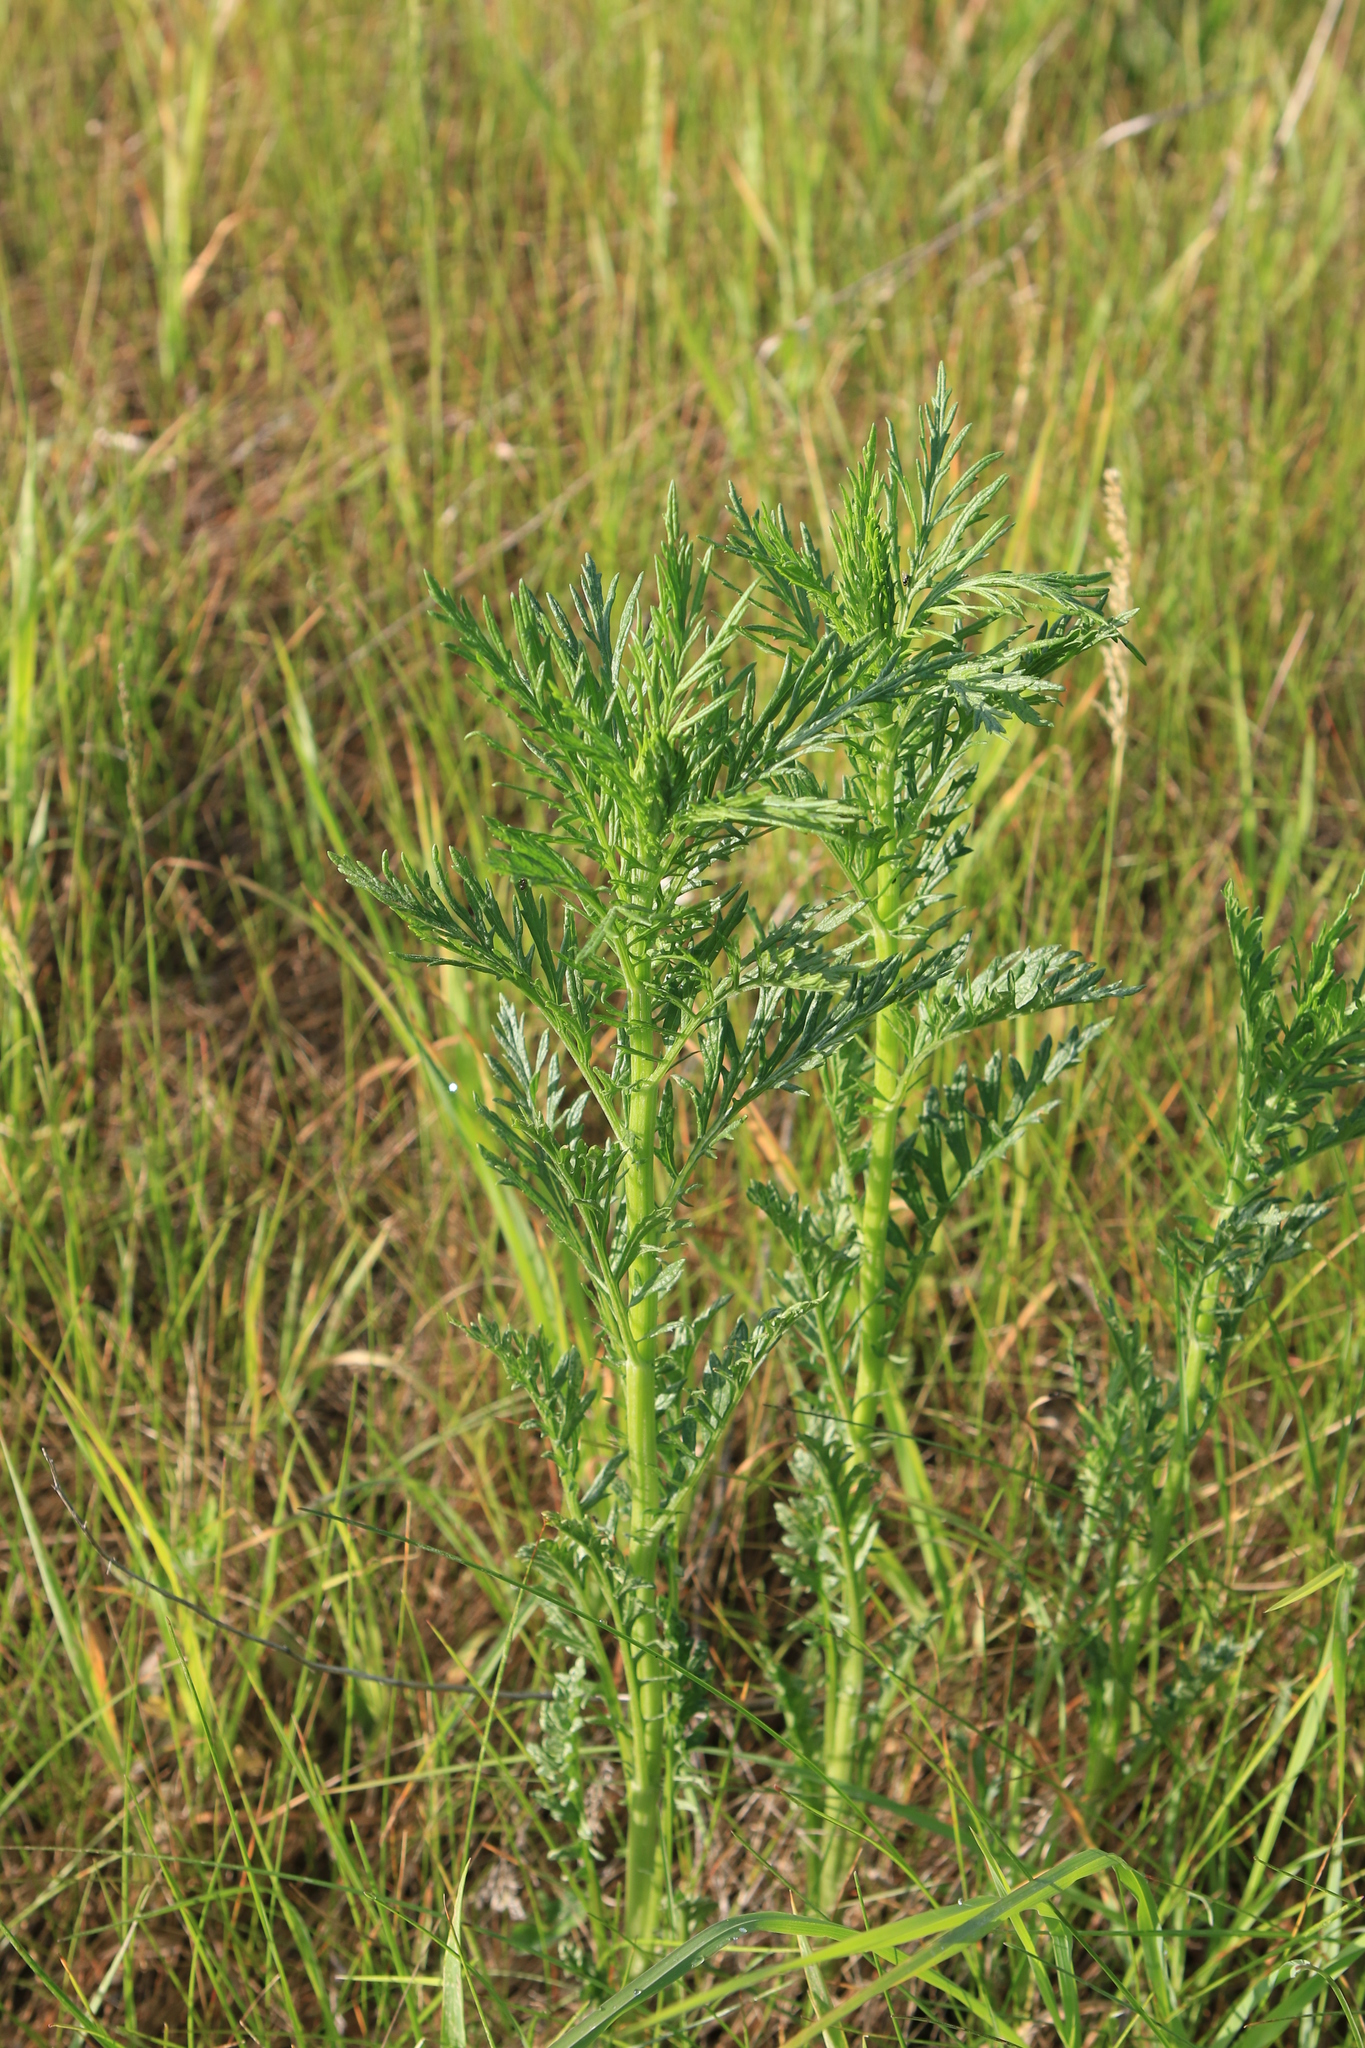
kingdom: Plantae
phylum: Tracheophyta
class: Magnoliopsida
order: Asterales
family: Asteraceae
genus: Jacobaea
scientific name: Jacobaea erucifolia
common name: Hoary ragwort
